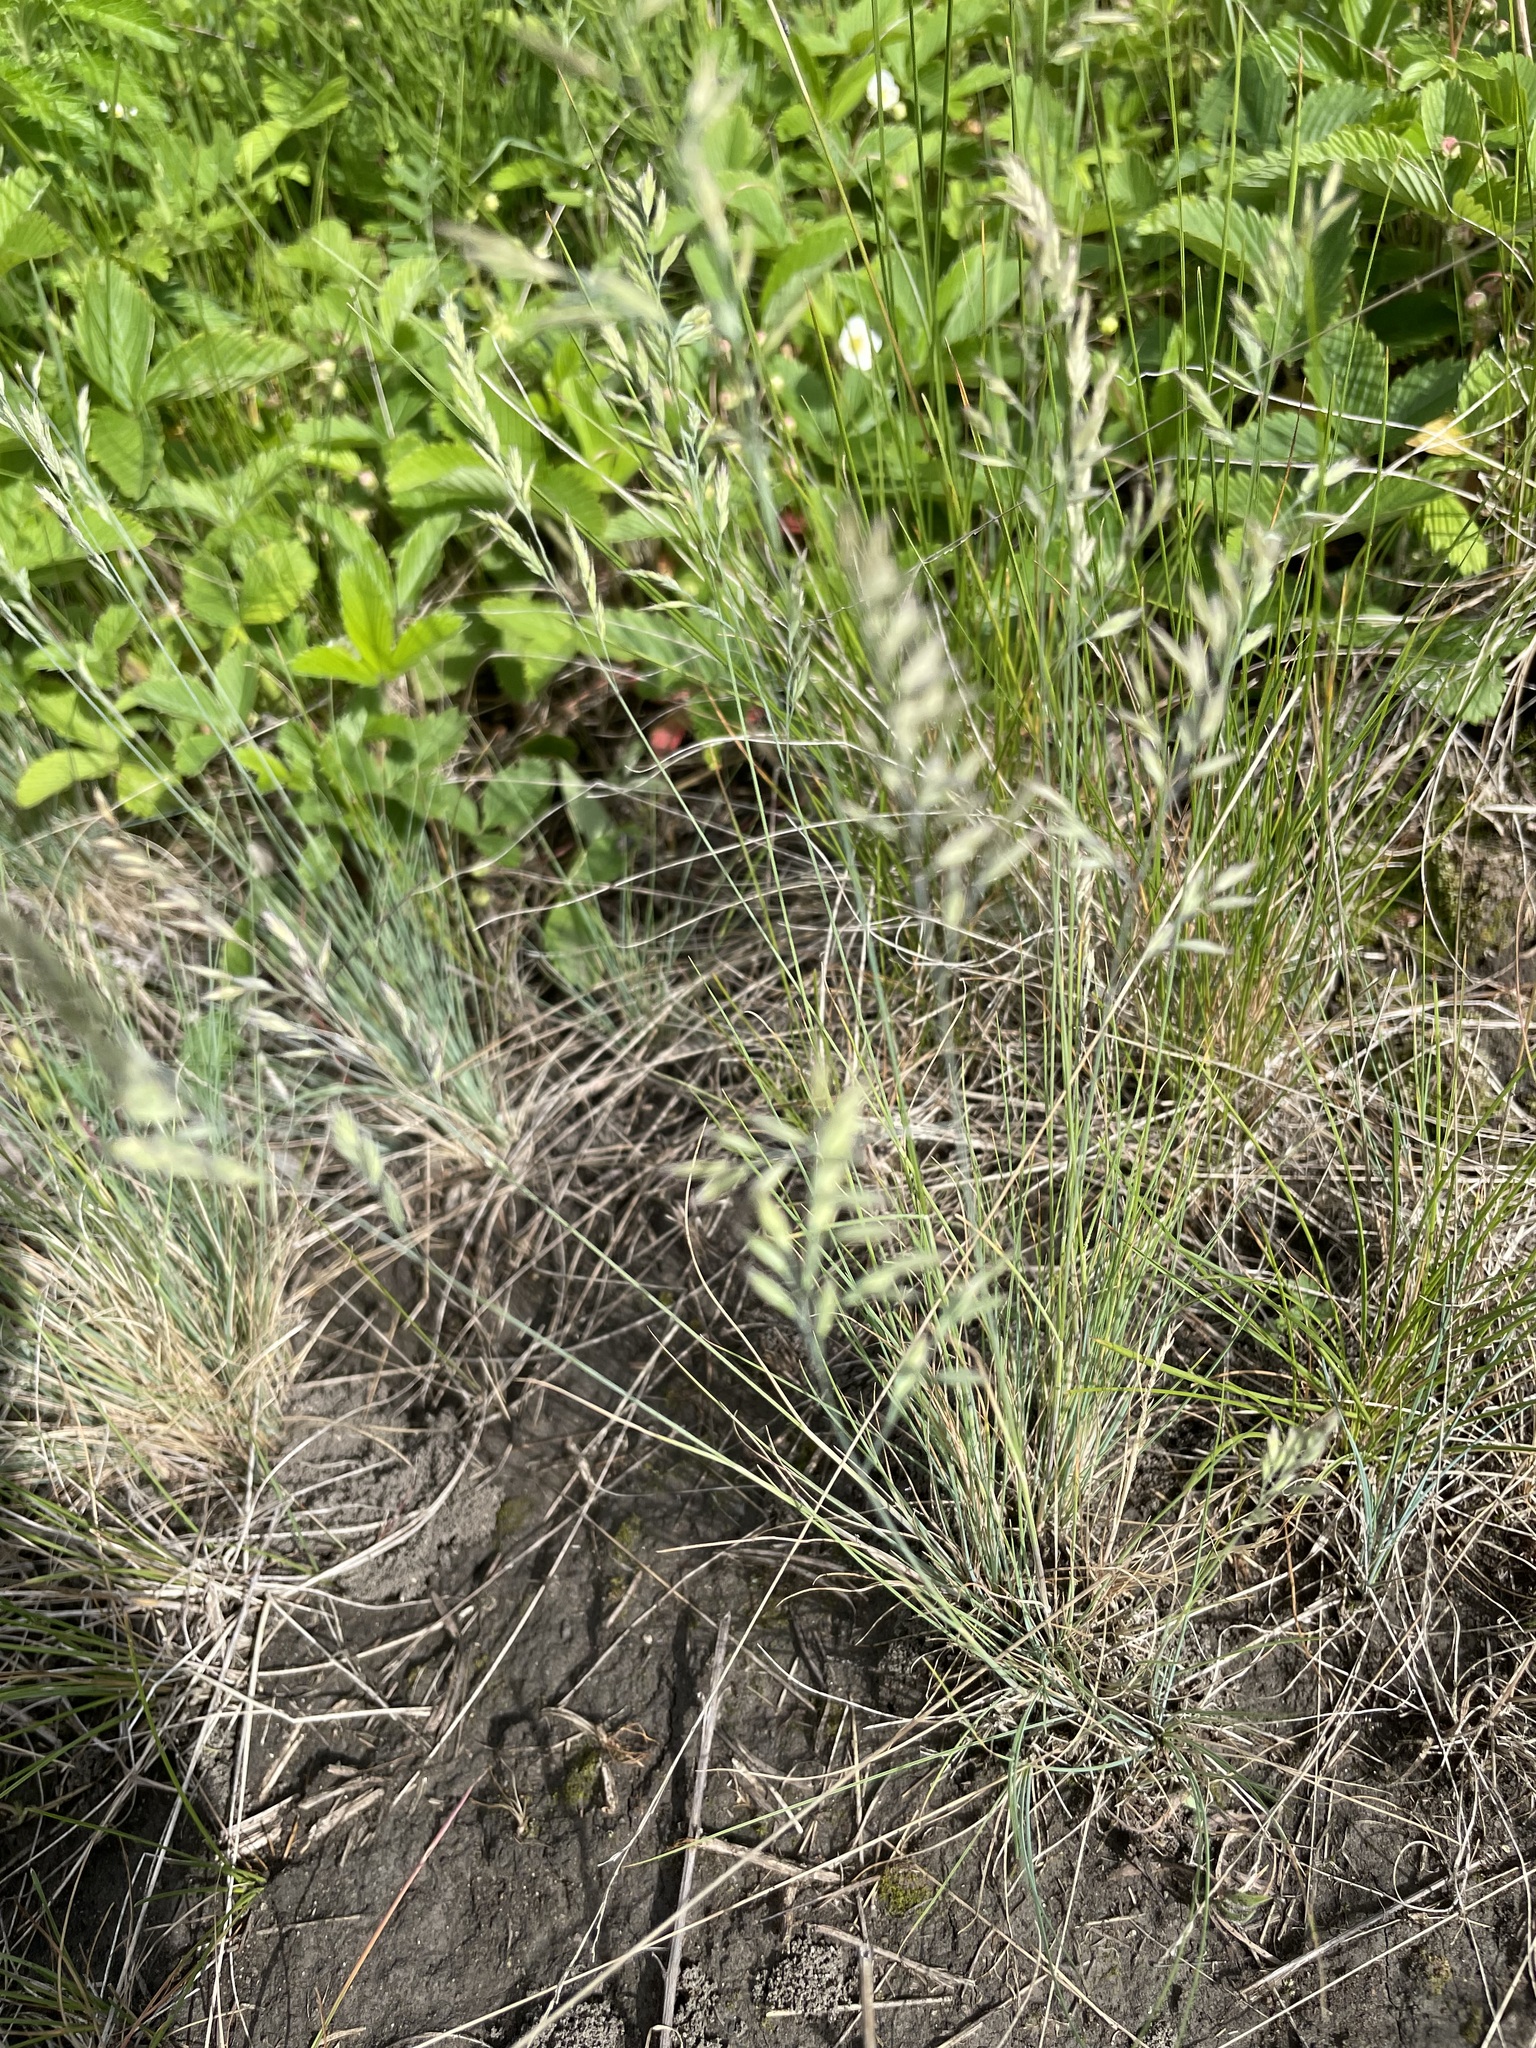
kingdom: Plantae
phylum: Tracheophyta
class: Liliopsida
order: Poales
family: Poaceae
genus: Festuca
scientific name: Festuca valesiaca
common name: Volga fescue
